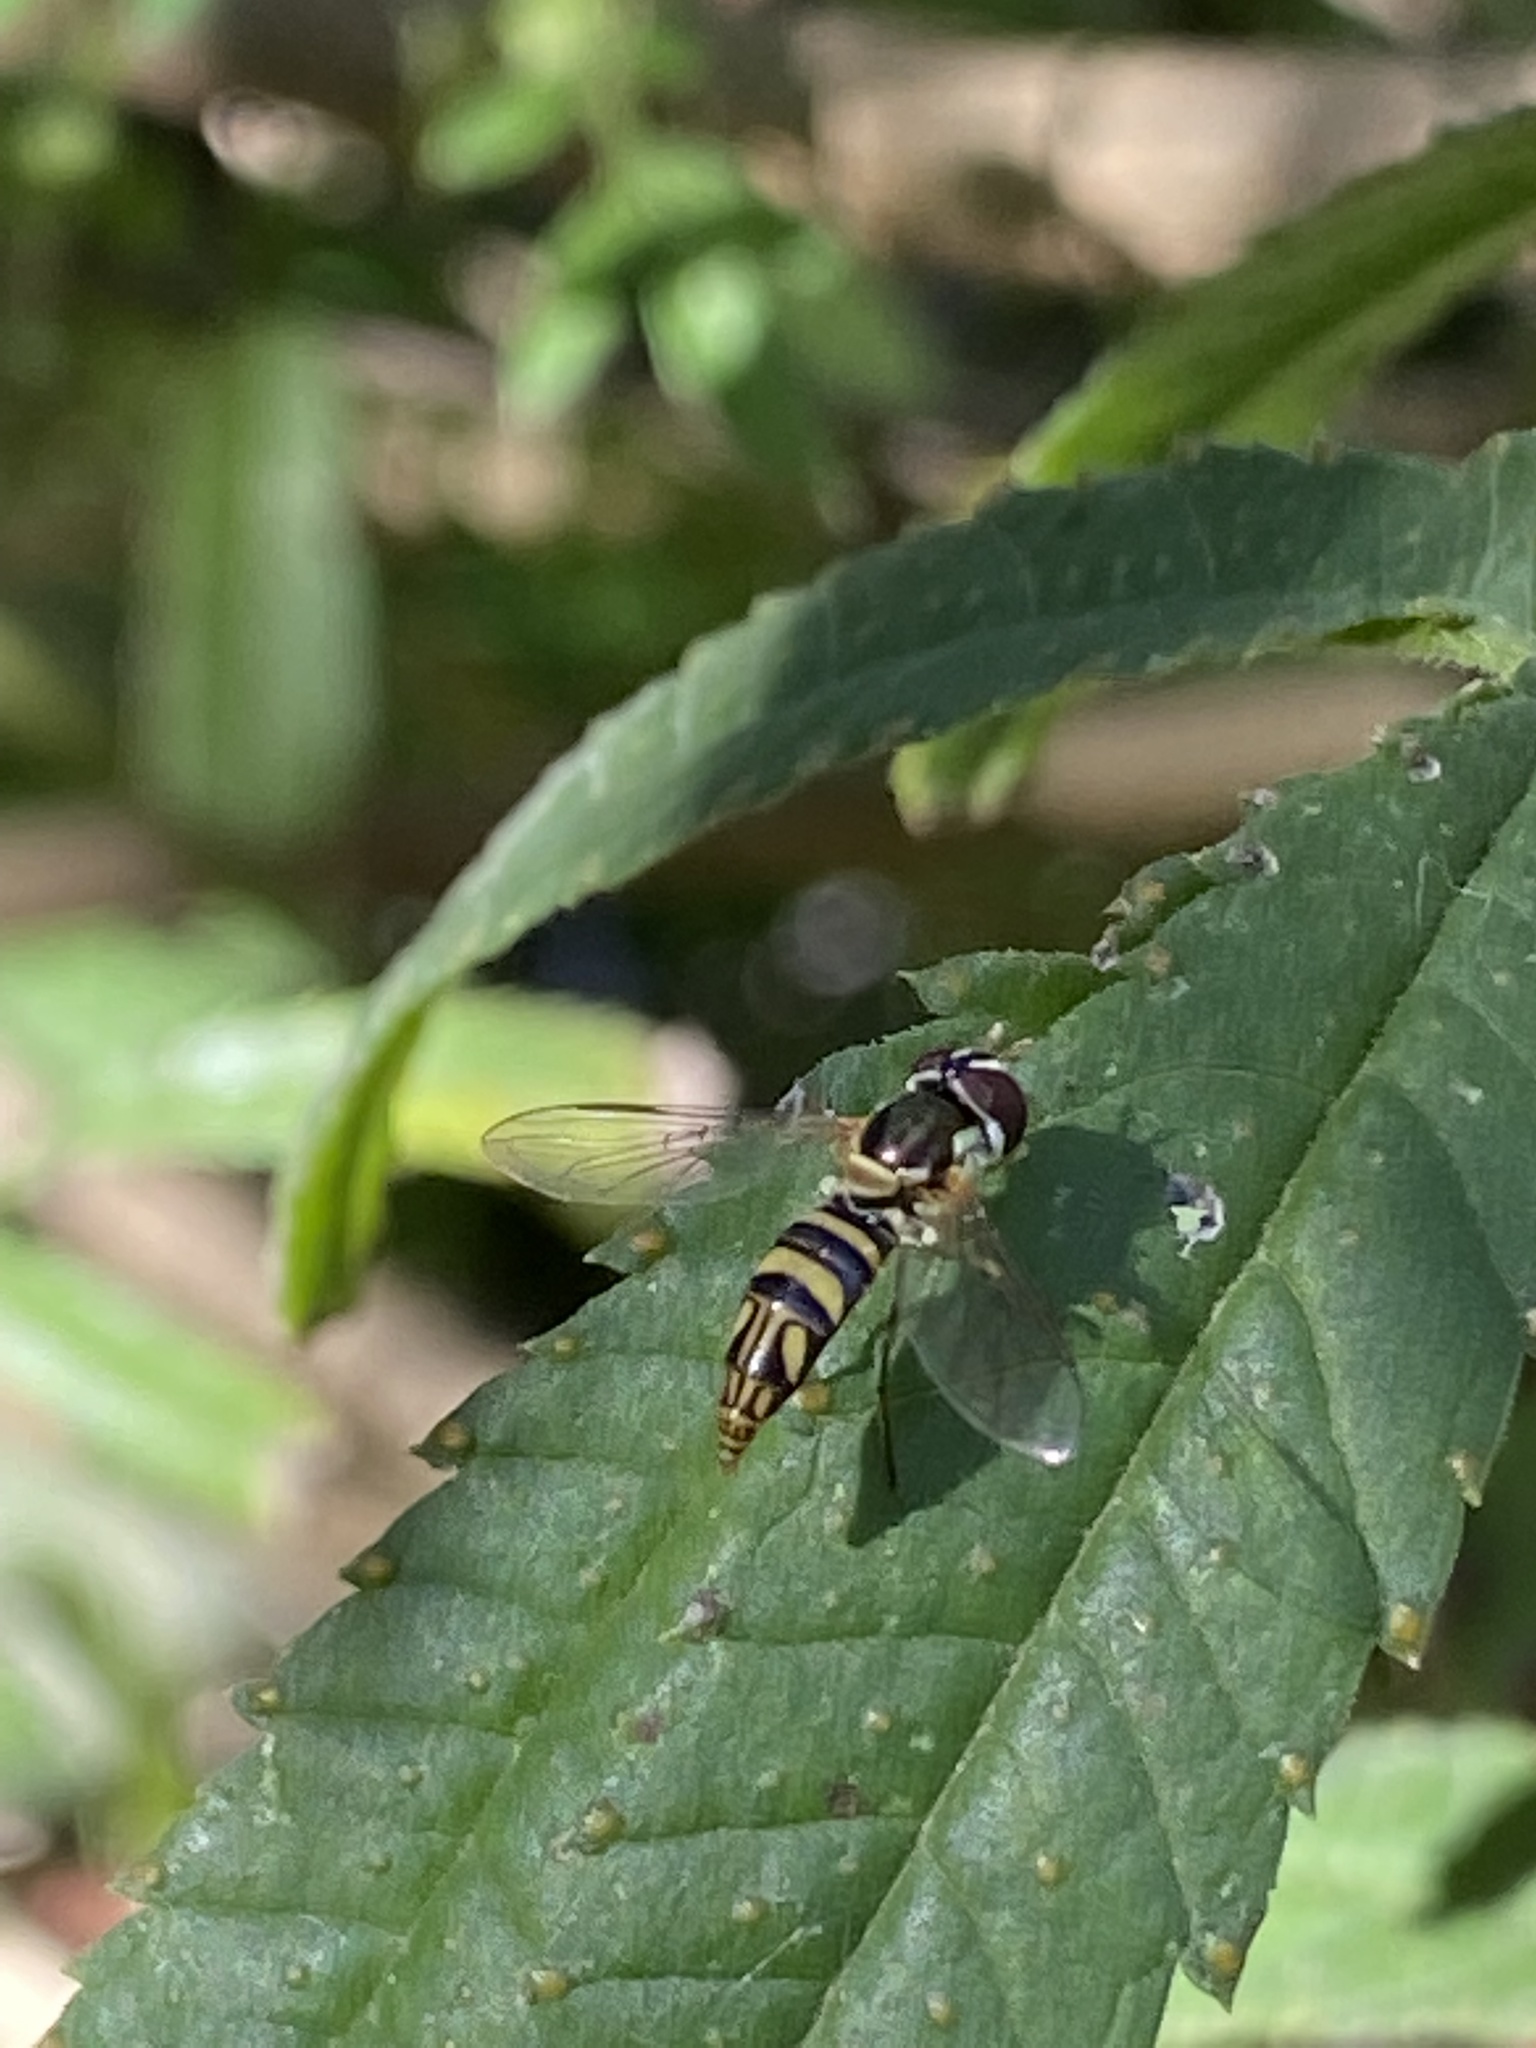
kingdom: Animalia
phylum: Arthropoda
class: Insecta
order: Diptera
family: Syrphidae
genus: Allograpta
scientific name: Allograpta obliqua
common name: Common oblique syrphid
